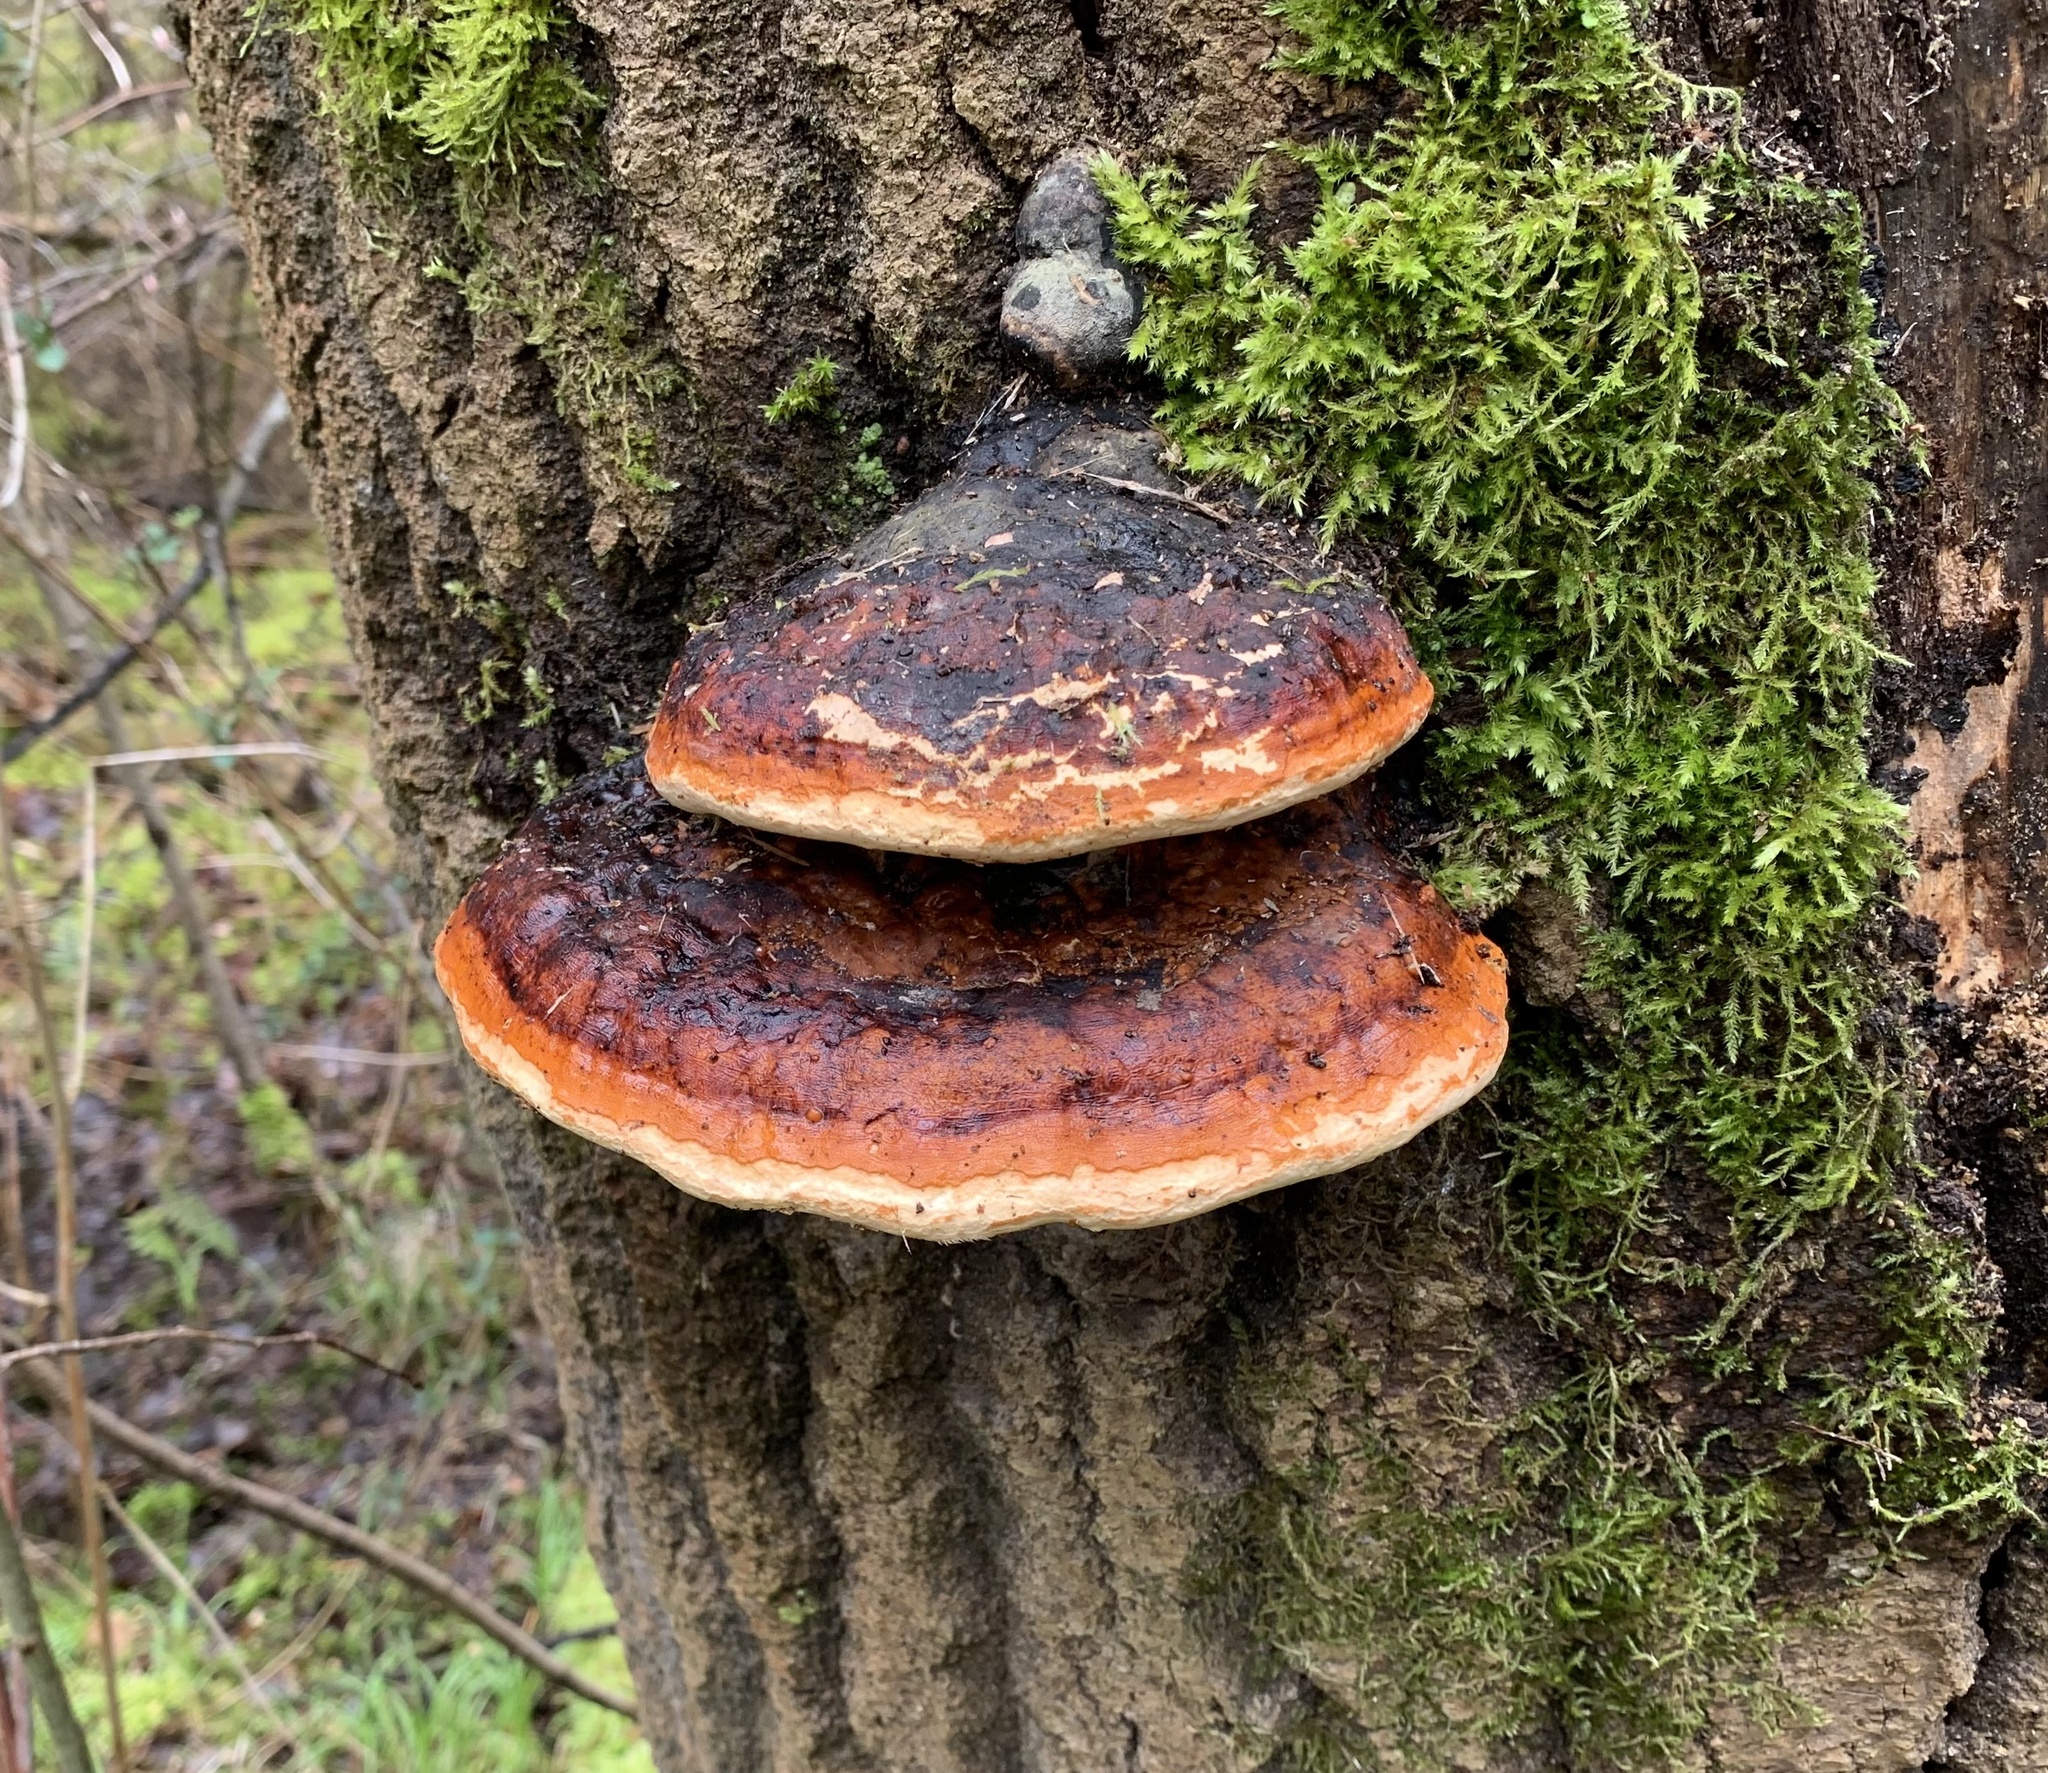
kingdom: Fungi
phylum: Basidiomycota
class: Agaricomycetes
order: Polyporales
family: Fomitopsidaceae
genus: Fomitopsis
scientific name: Fomitopsis pinicola
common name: Red-belted bracket
